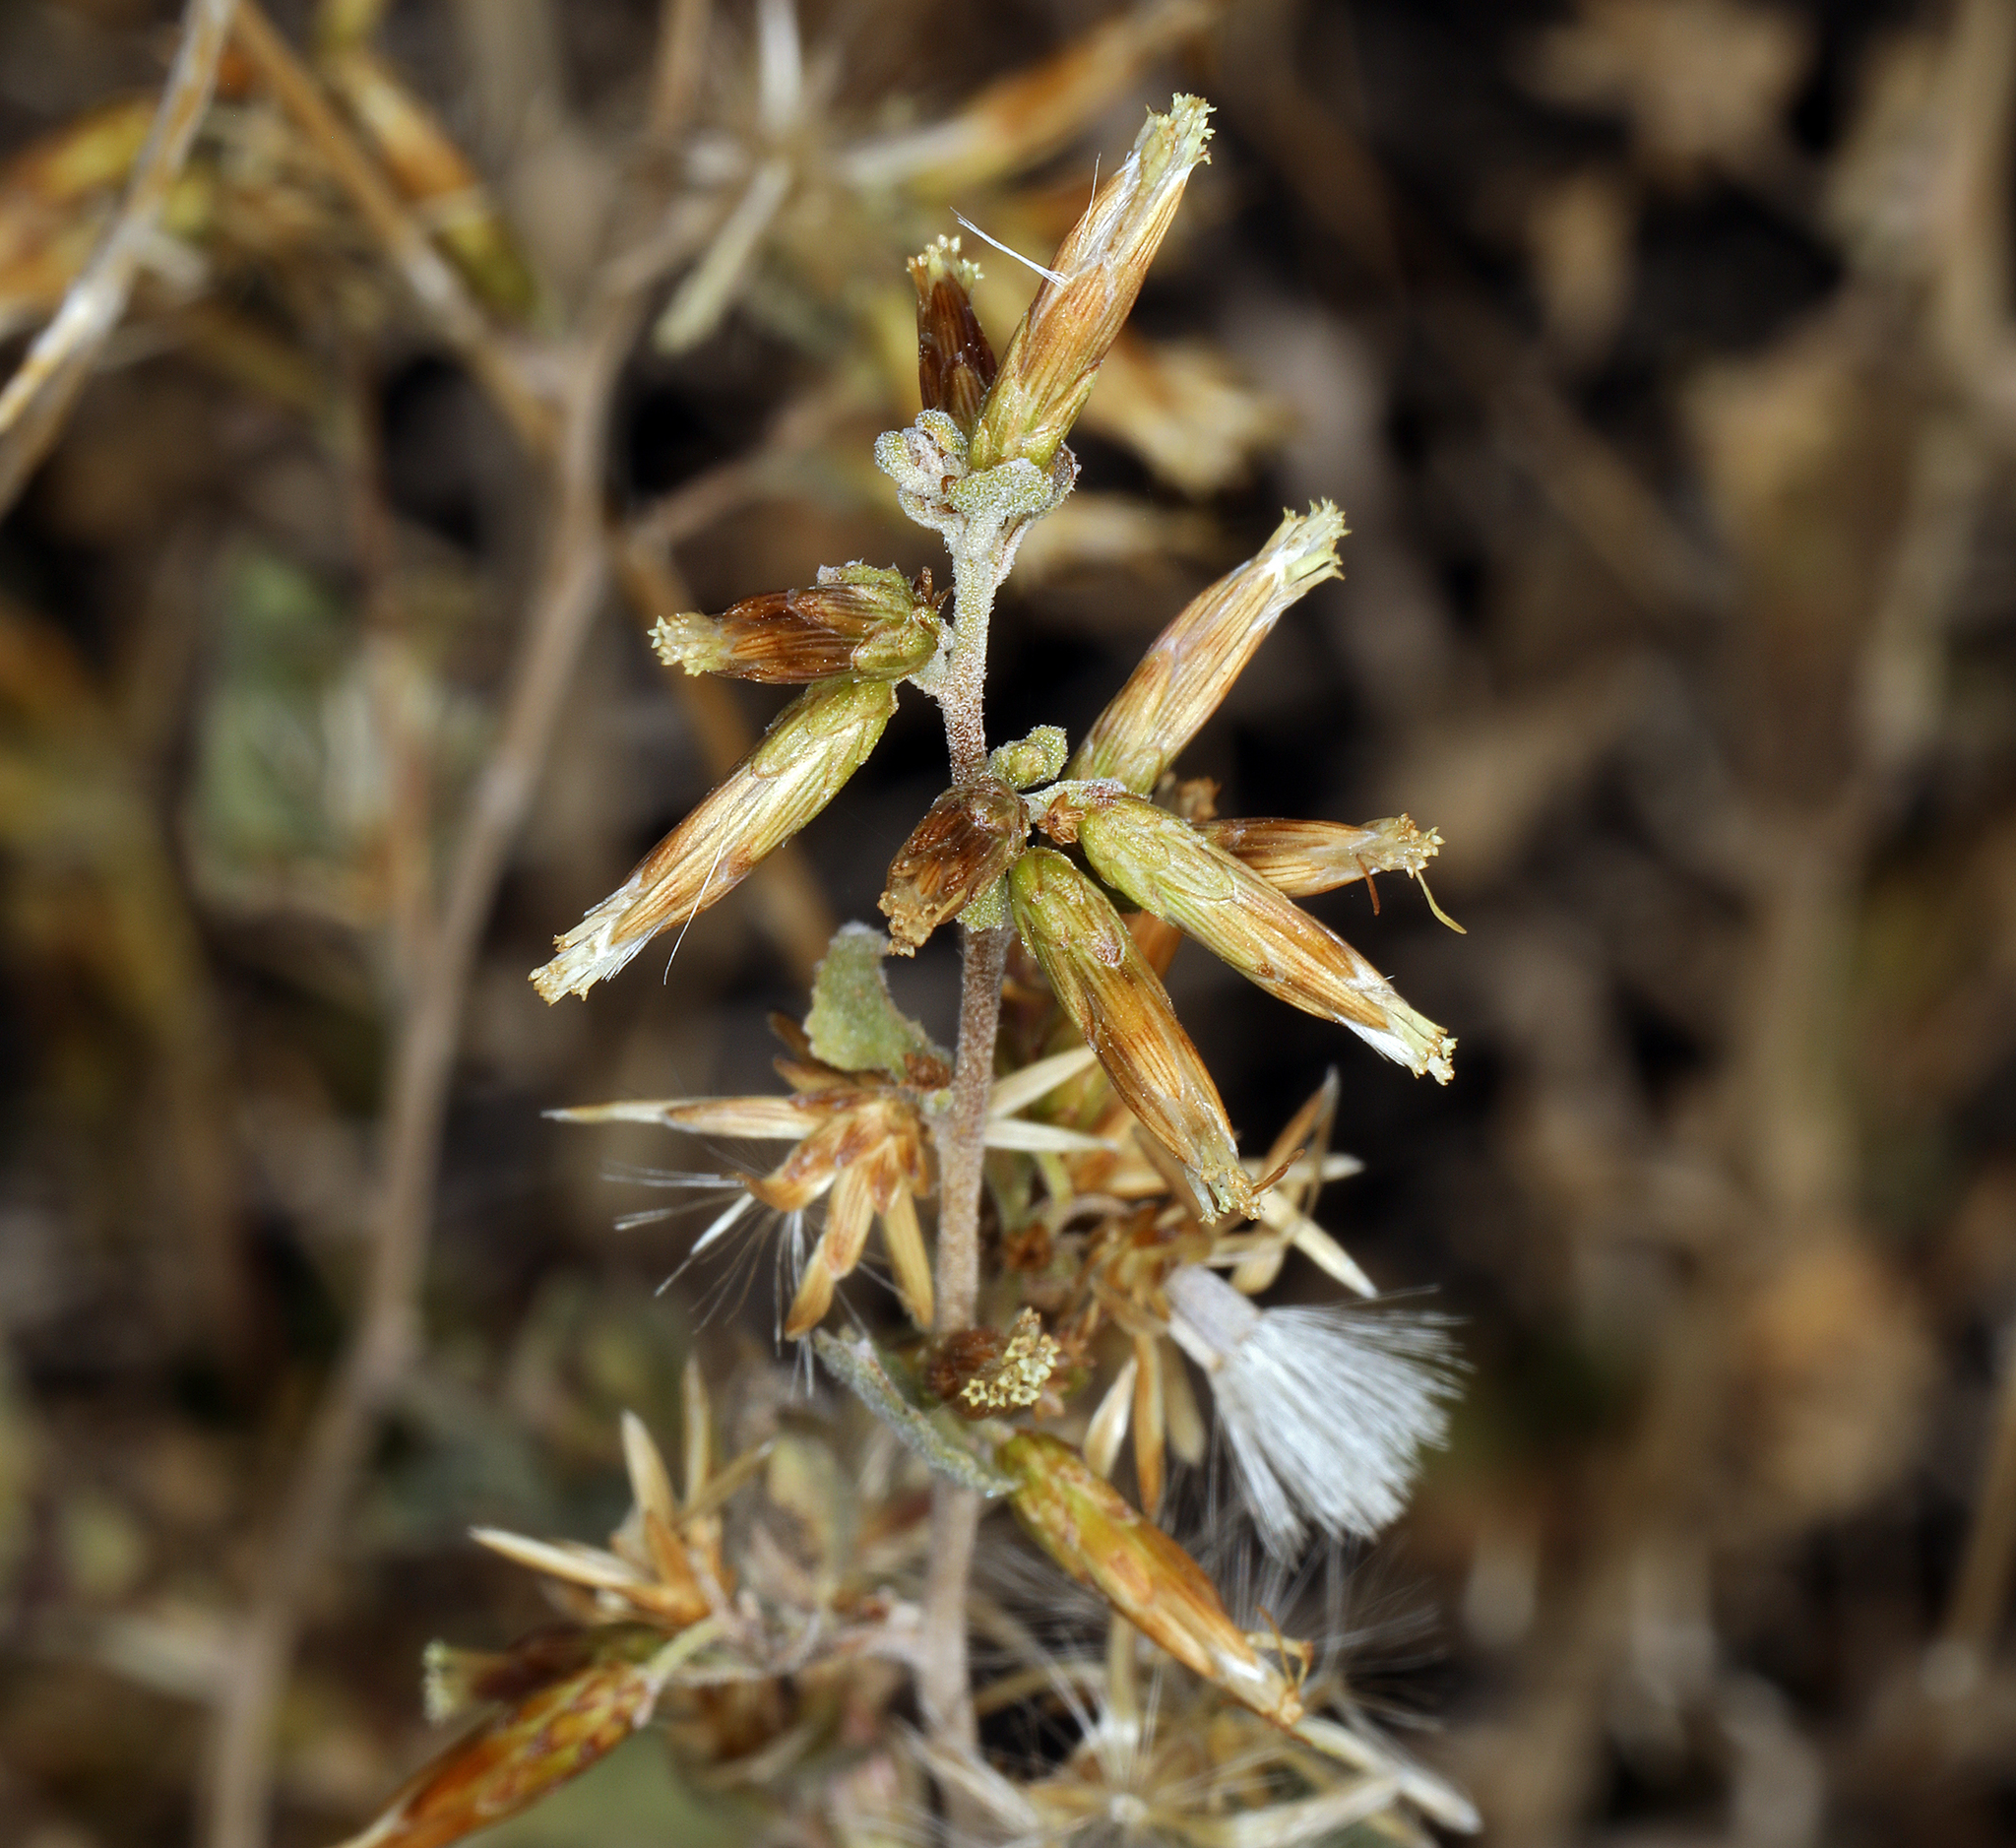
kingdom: Plantae
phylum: Tracheophyta
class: Magnoliopsida
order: Asterales
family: Asteraceae
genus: Brickellia
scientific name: Brickellia californica
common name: California brickellbush
